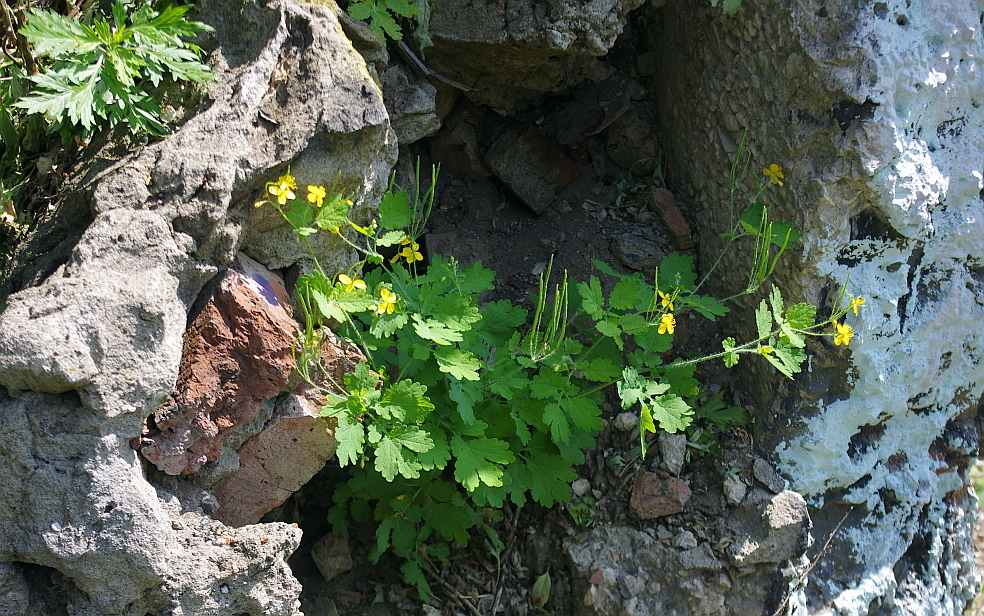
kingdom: Plantae
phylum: Tracheophyta
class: Magnoliopsida
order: Ranunculales
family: Papaveraceae
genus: Chelidonium
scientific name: Chelidonium majus
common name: Greater celandine
